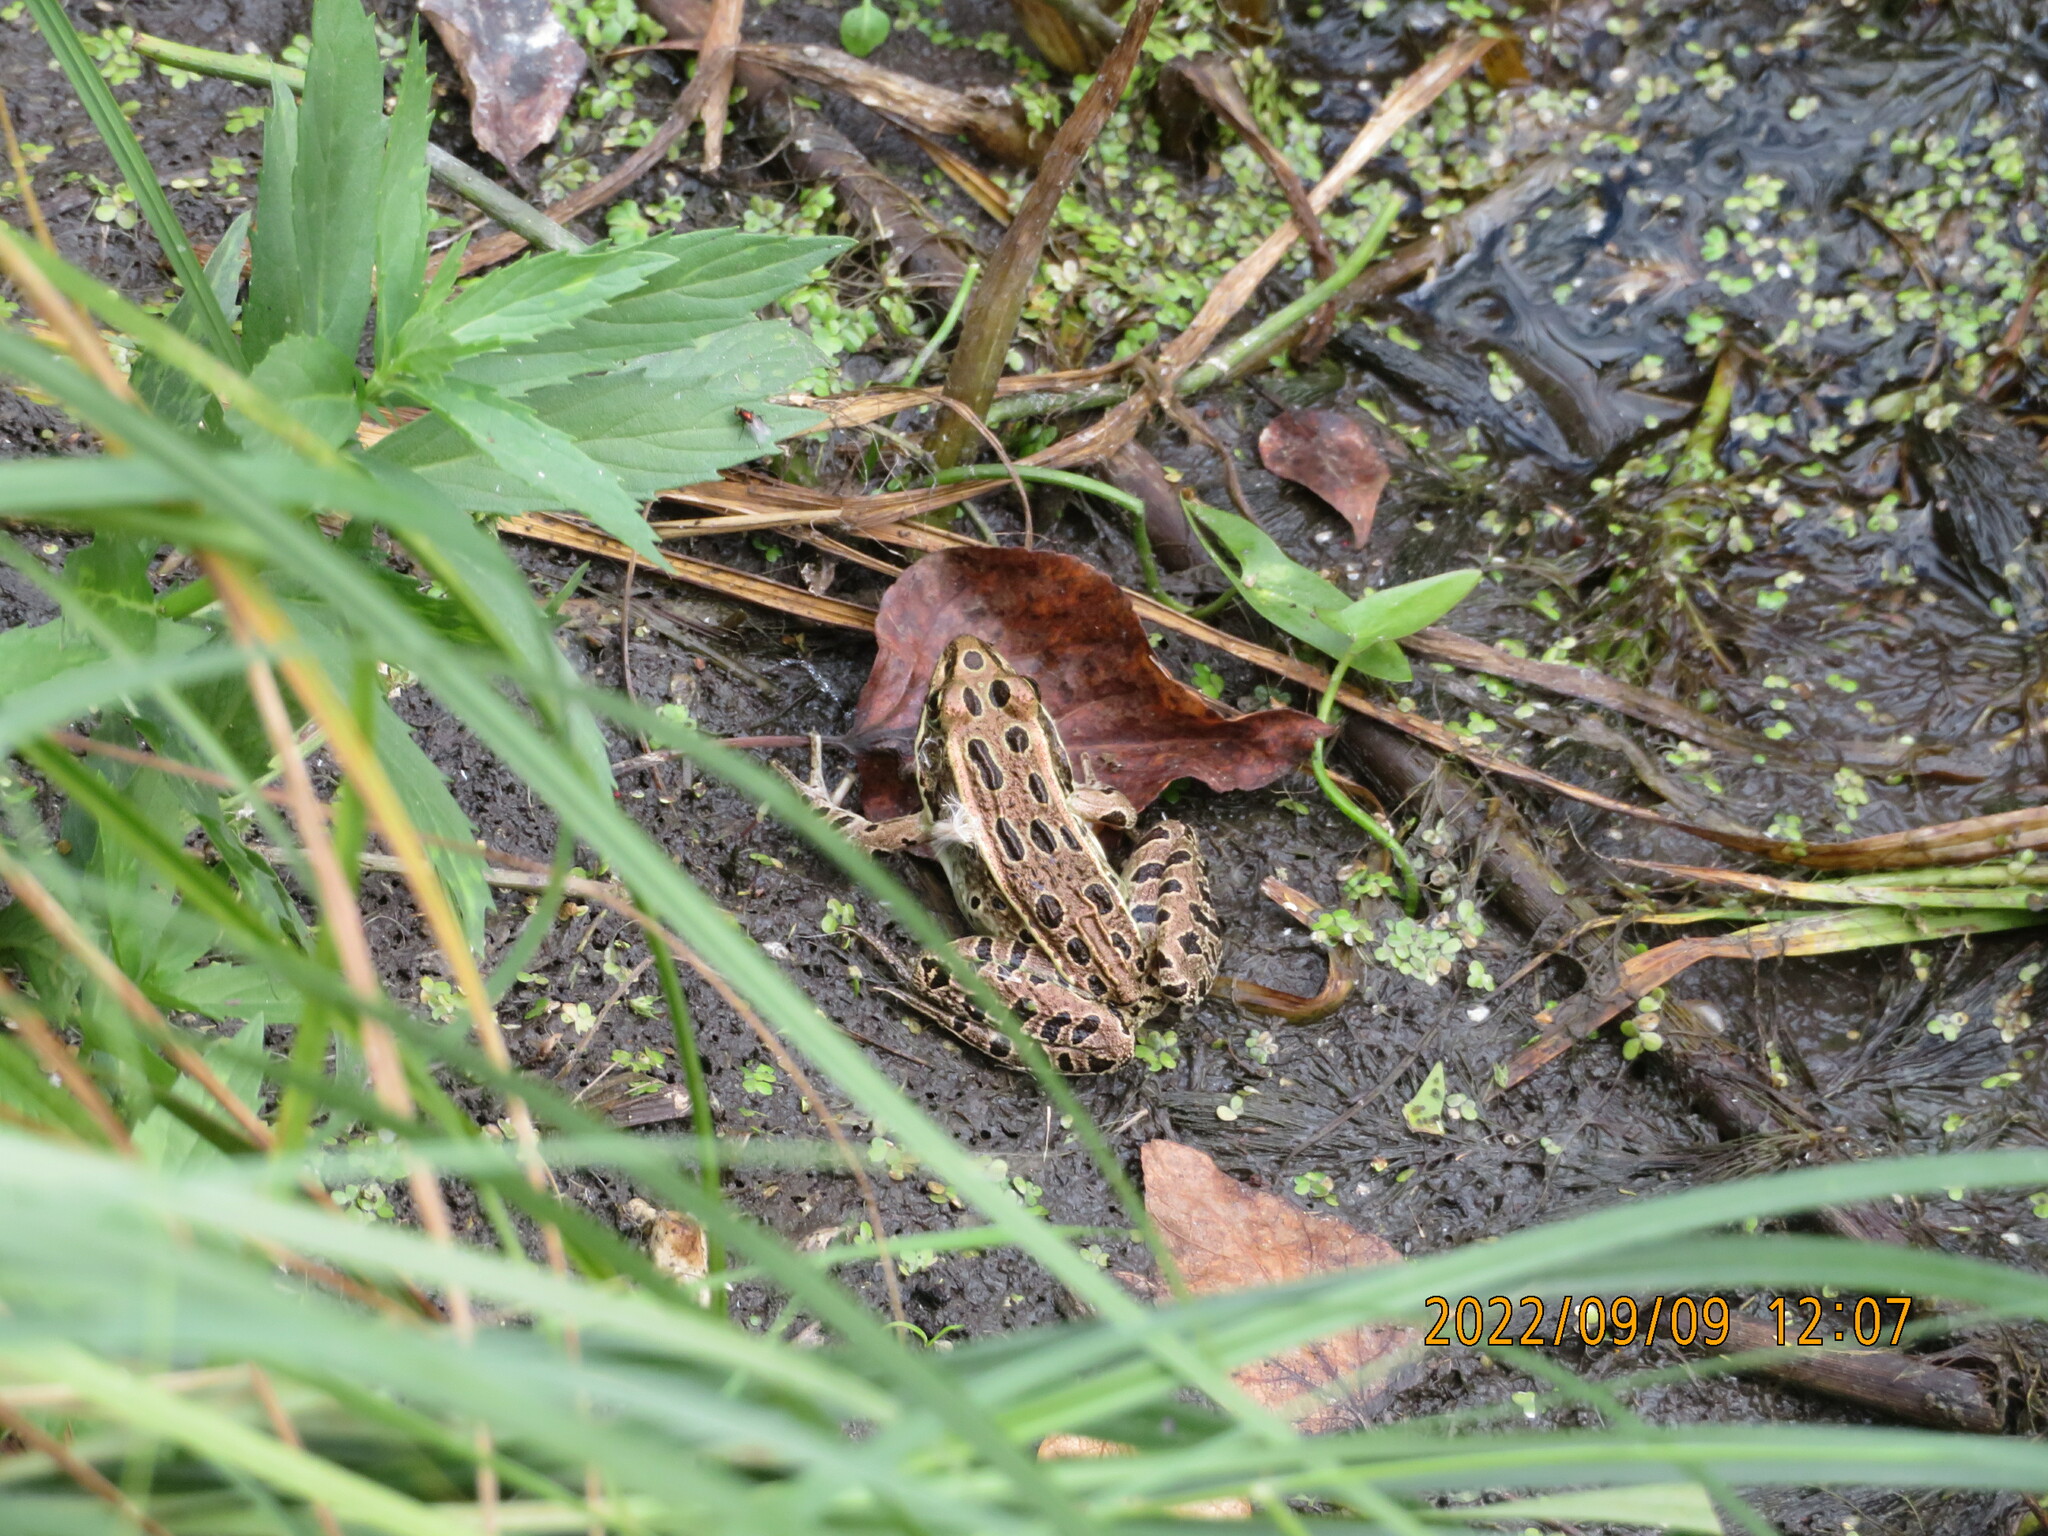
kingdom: Animalia
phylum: Chordata
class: Amphibia
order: Anura
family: Ranidae
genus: Lithobates
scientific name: Lithobates pipiens
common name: Northern leopard frog
